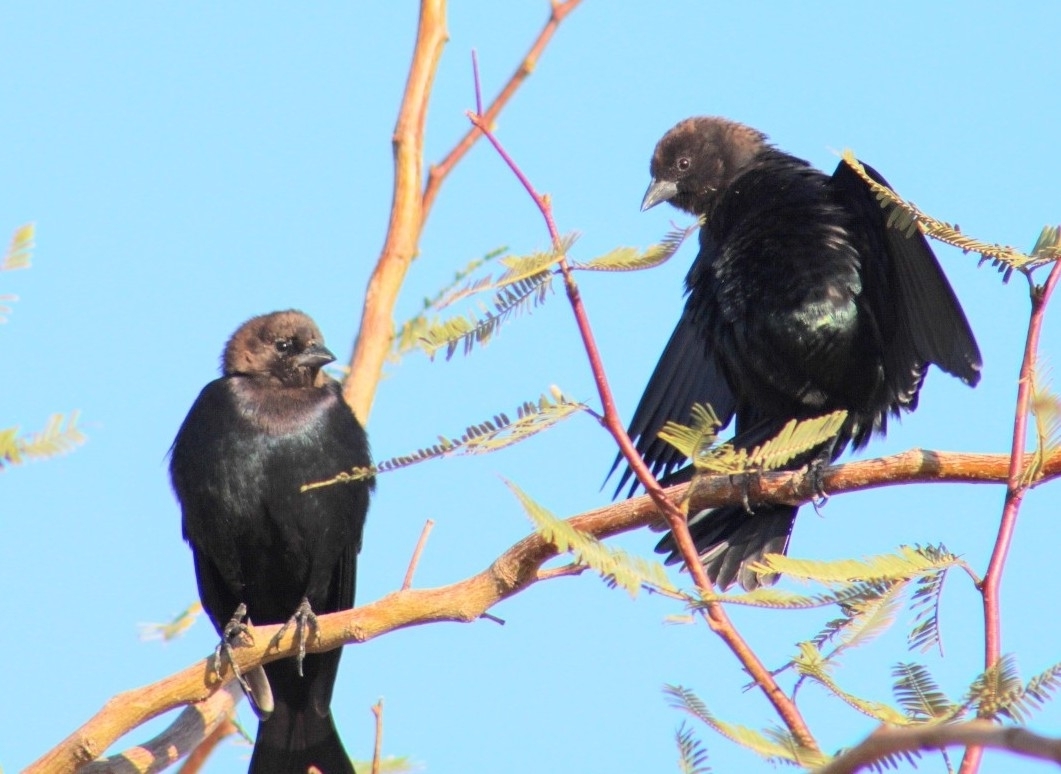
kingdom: Animalia
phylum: Chordata
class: Aves
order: Passeriformes
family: Icteridae
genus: Molothrus
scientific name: Molothrus ater
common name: Brown-headed cowbird
